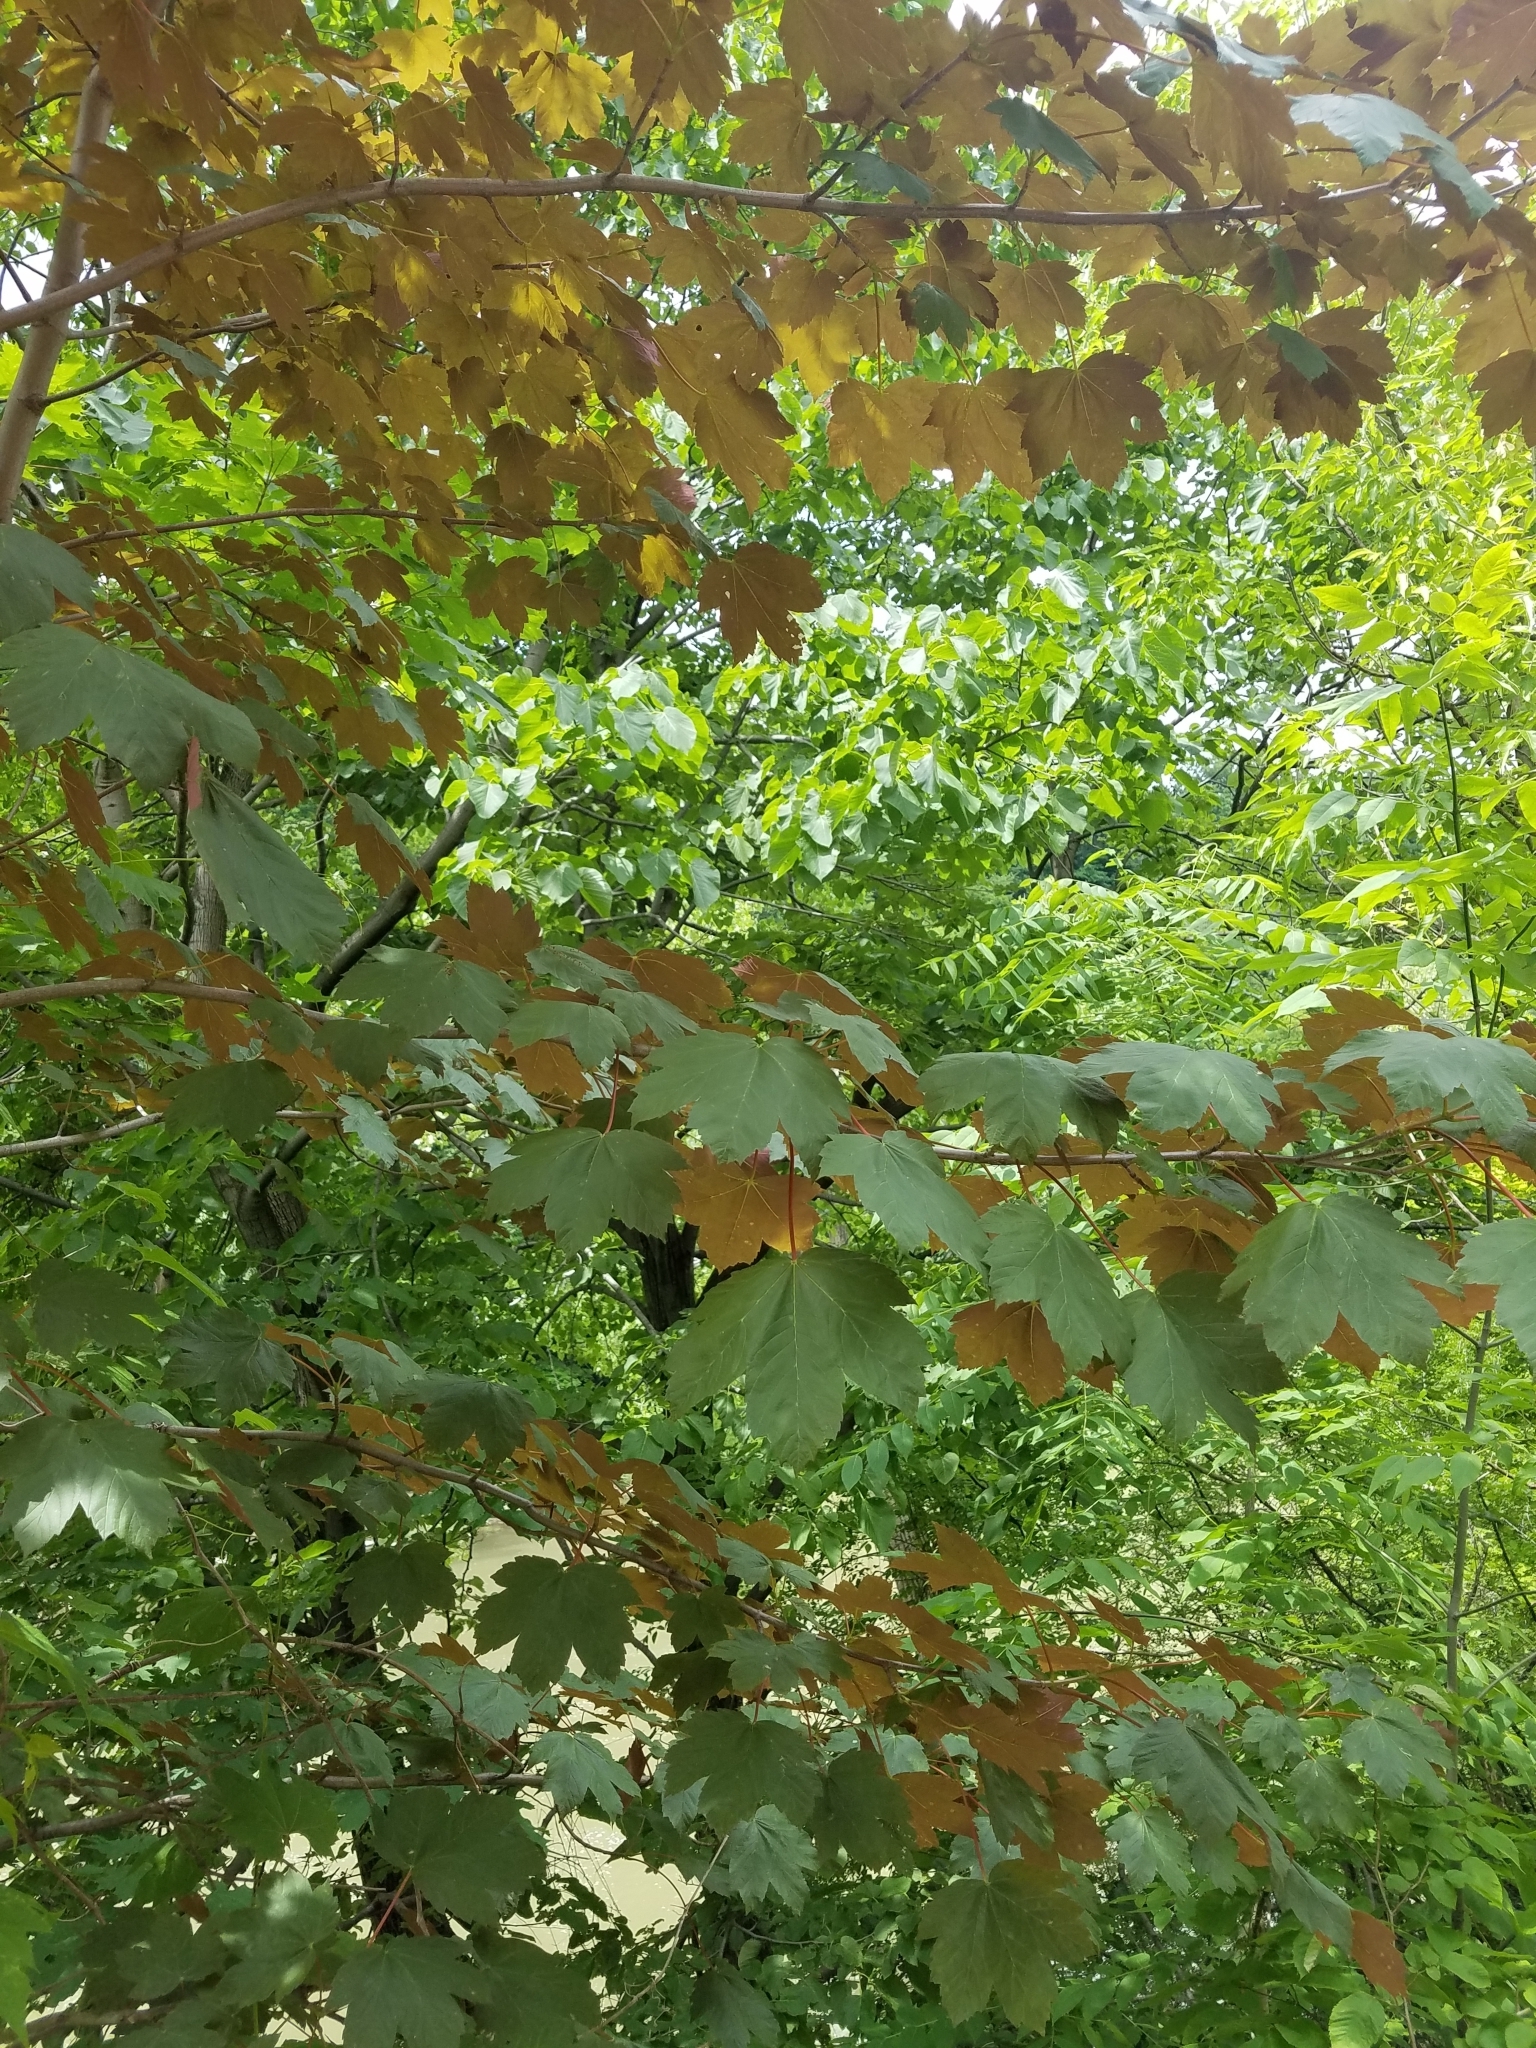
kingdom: Plantae
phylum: Tracheophyta
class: Magnoliopsida
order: Sapindales
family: Sapindaceae
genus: Acer
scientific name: Acer pseudoplatanus
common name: Sycamore
